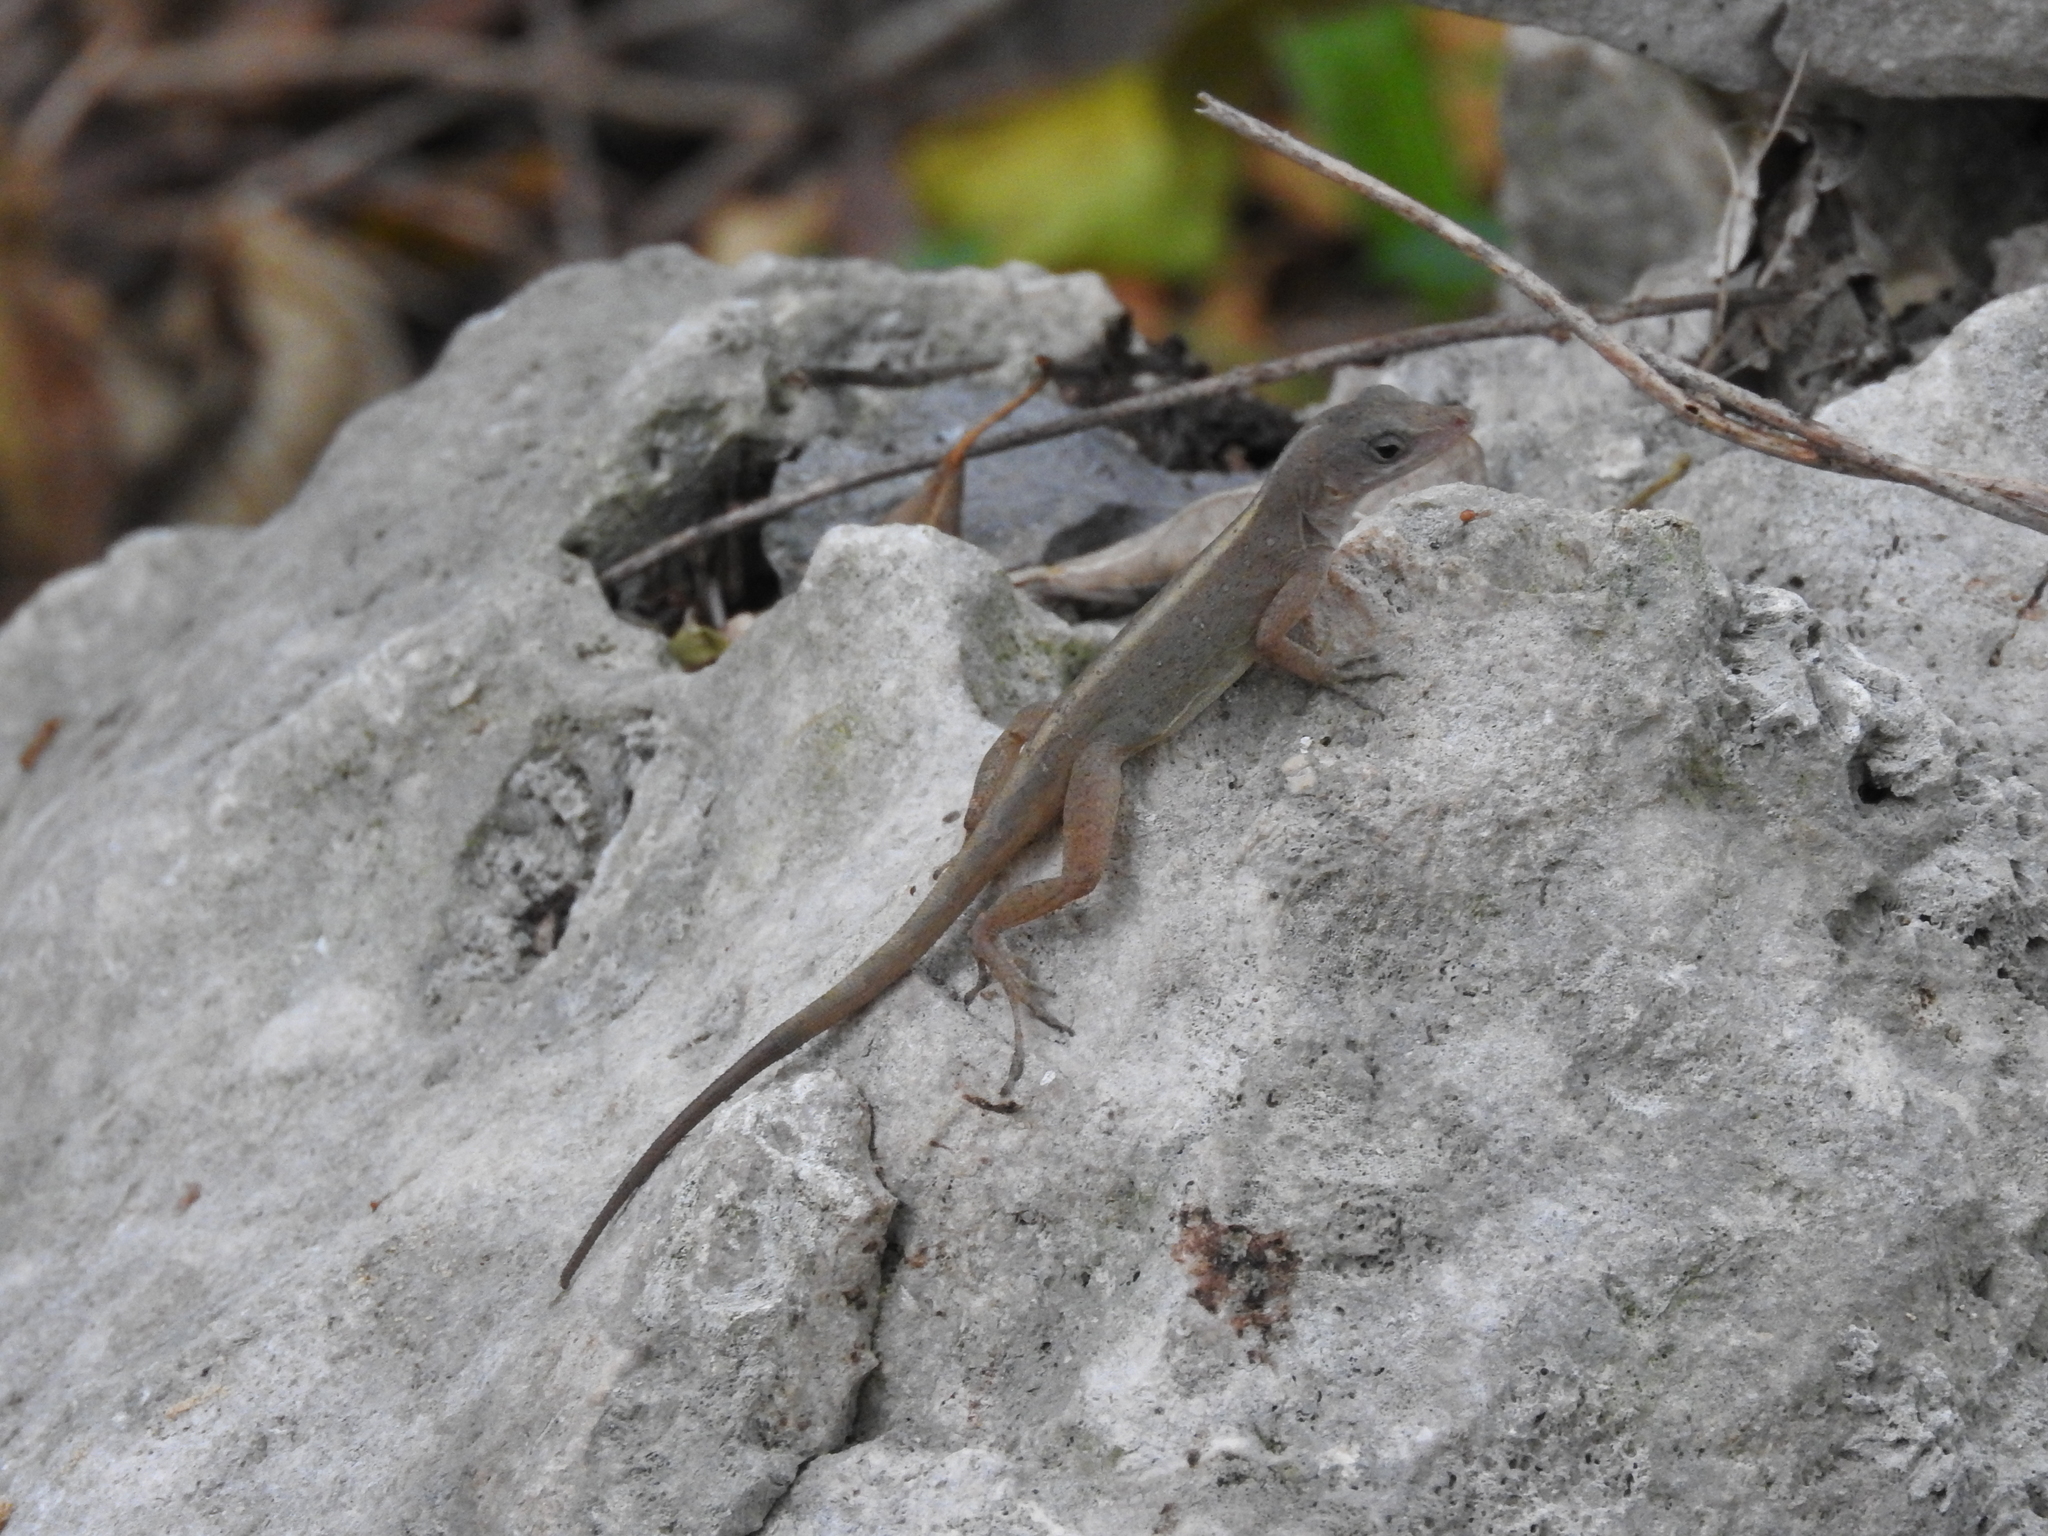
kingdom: Animalia
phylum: Chordata
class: Squamata
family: Dactyloidae
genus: Anolis
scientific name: Anolis sagrei
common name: Brown anole
